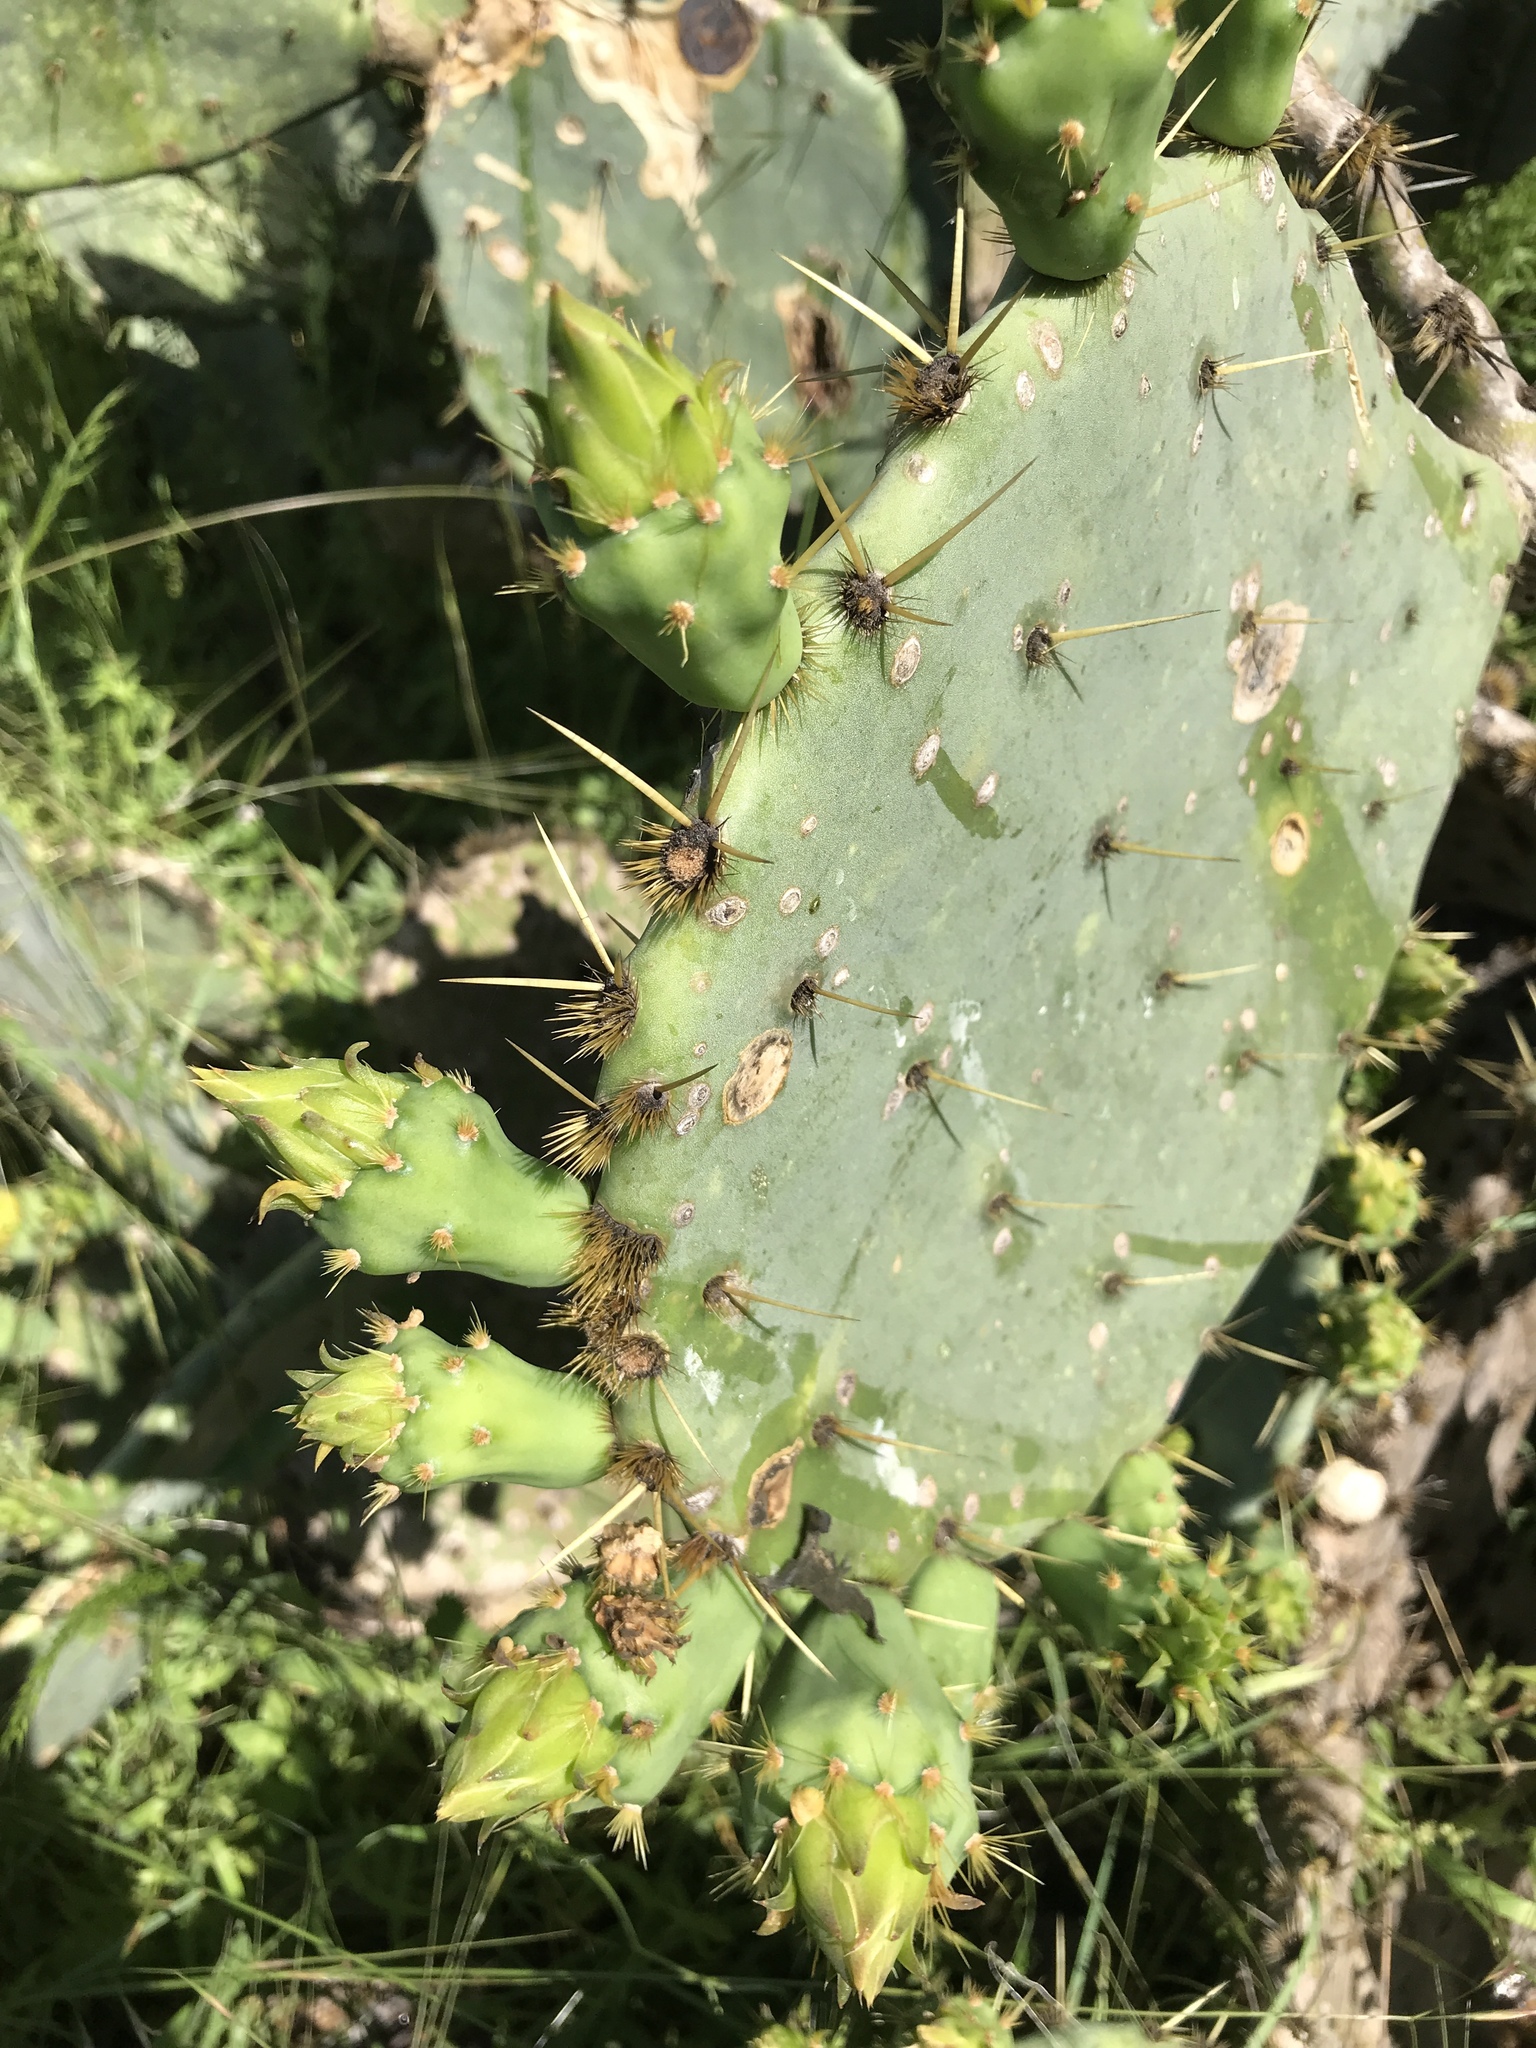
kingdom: Plantae
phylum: Tracheophyta
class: Magnoliopsida
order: Caryophyllales
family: Cactaceae
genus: Opuntia
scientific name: Opuntia engelmannii
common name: Cactus-apple
